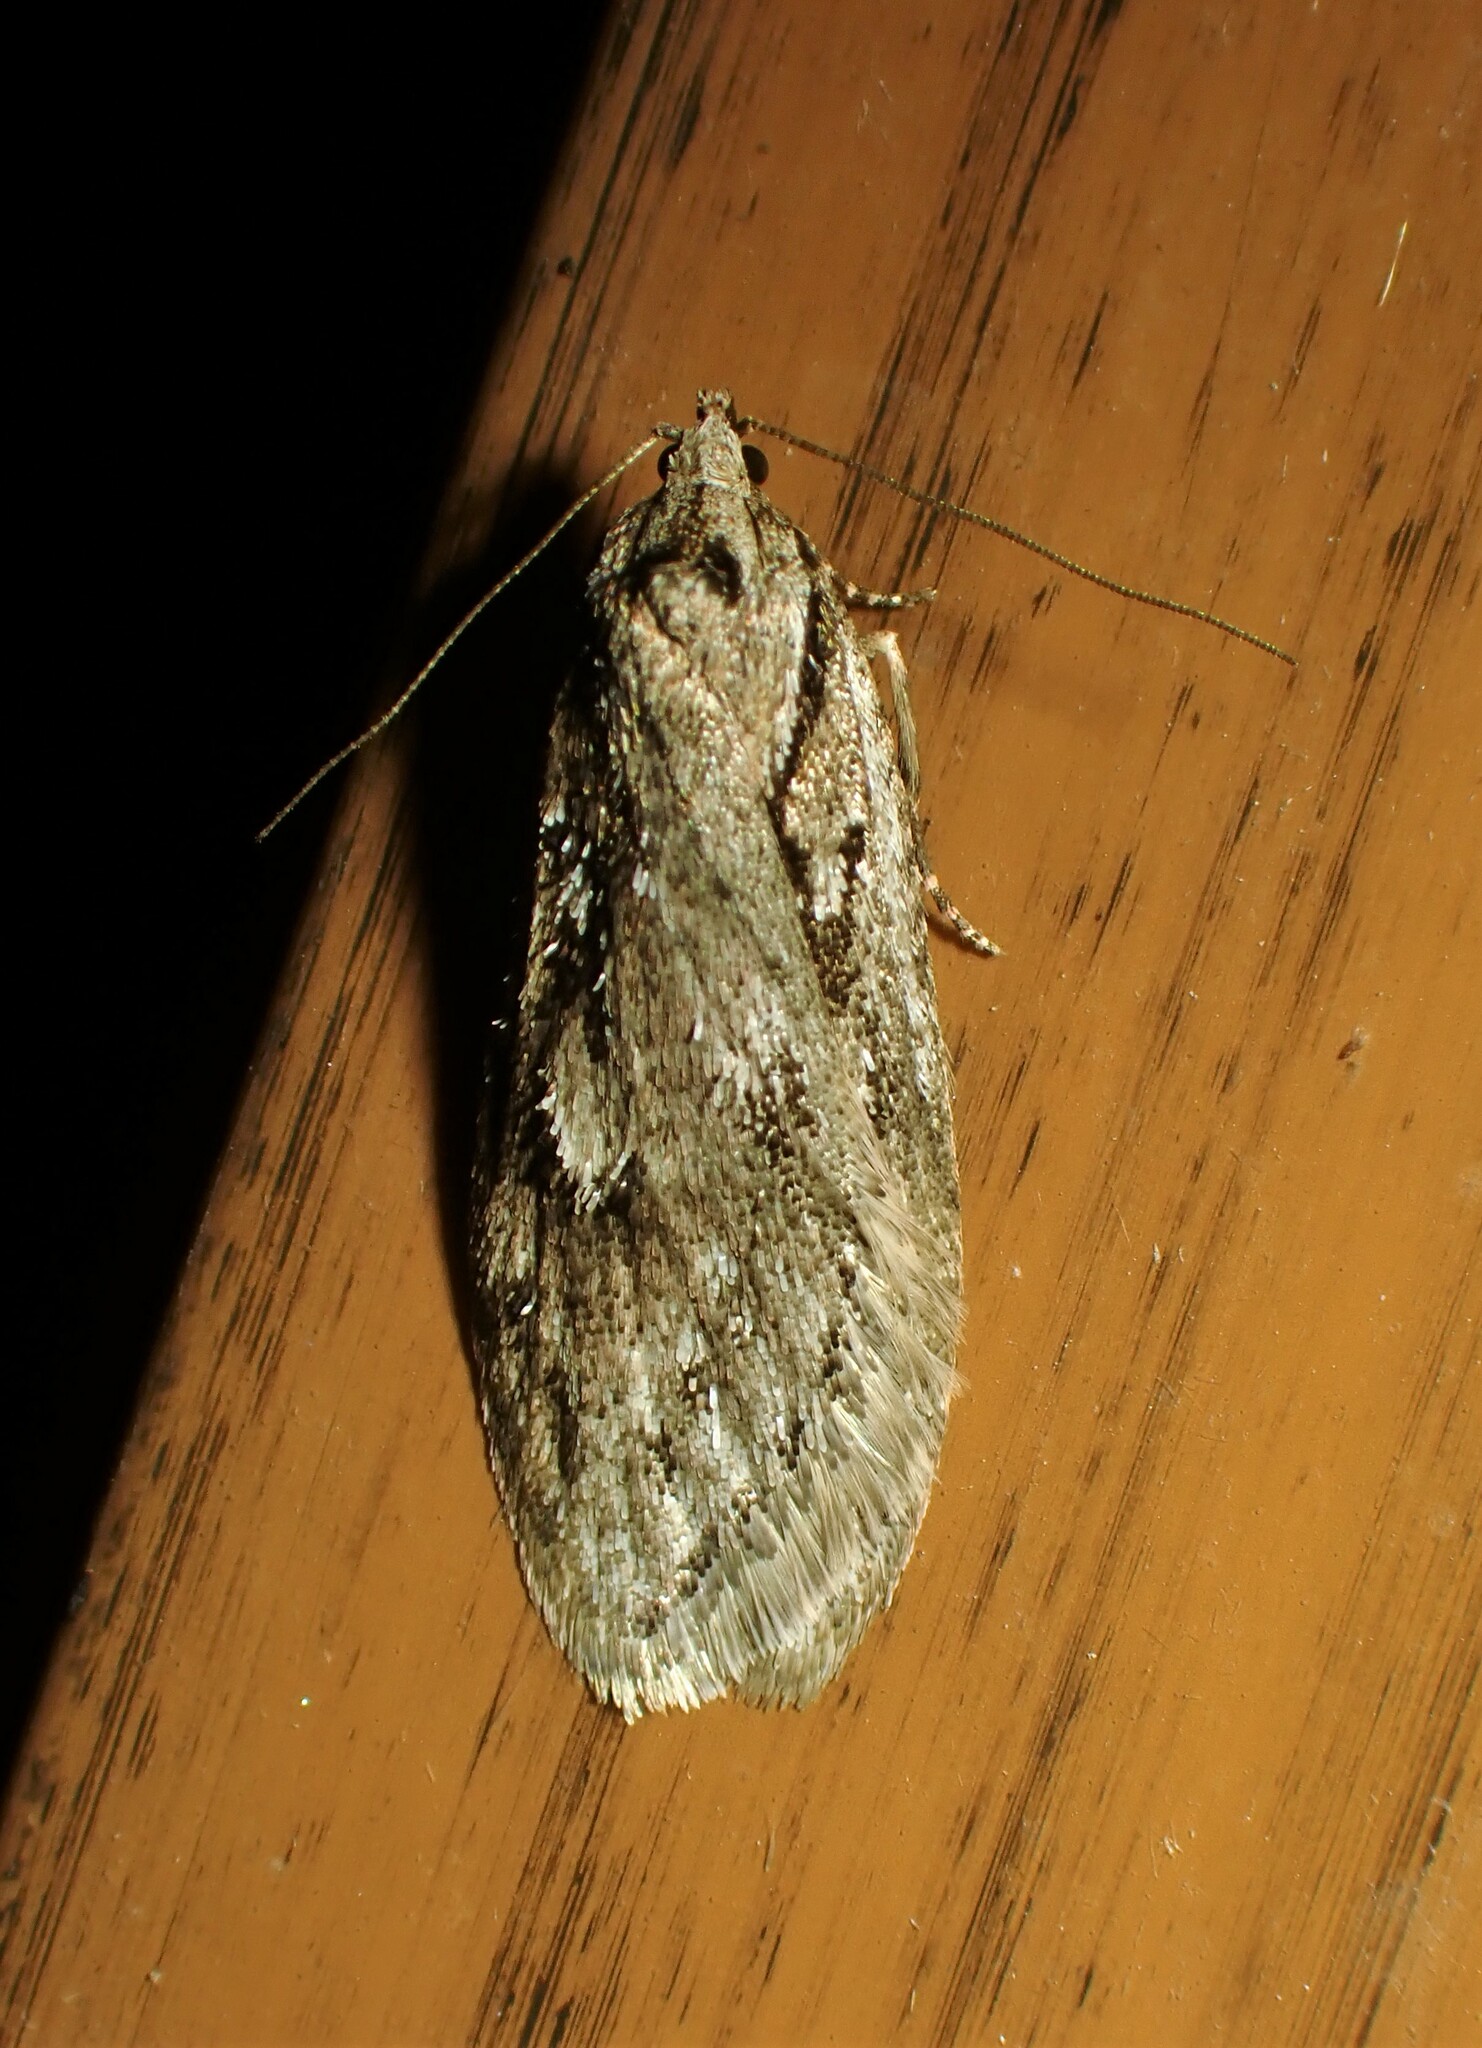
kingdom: Animalia
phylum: Arthropoda
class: Insecta
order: Lepidoptera
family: Depressariidae
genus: Semioscopis
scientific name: Semioscopis aurorella
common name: Aurora flatbody moth
